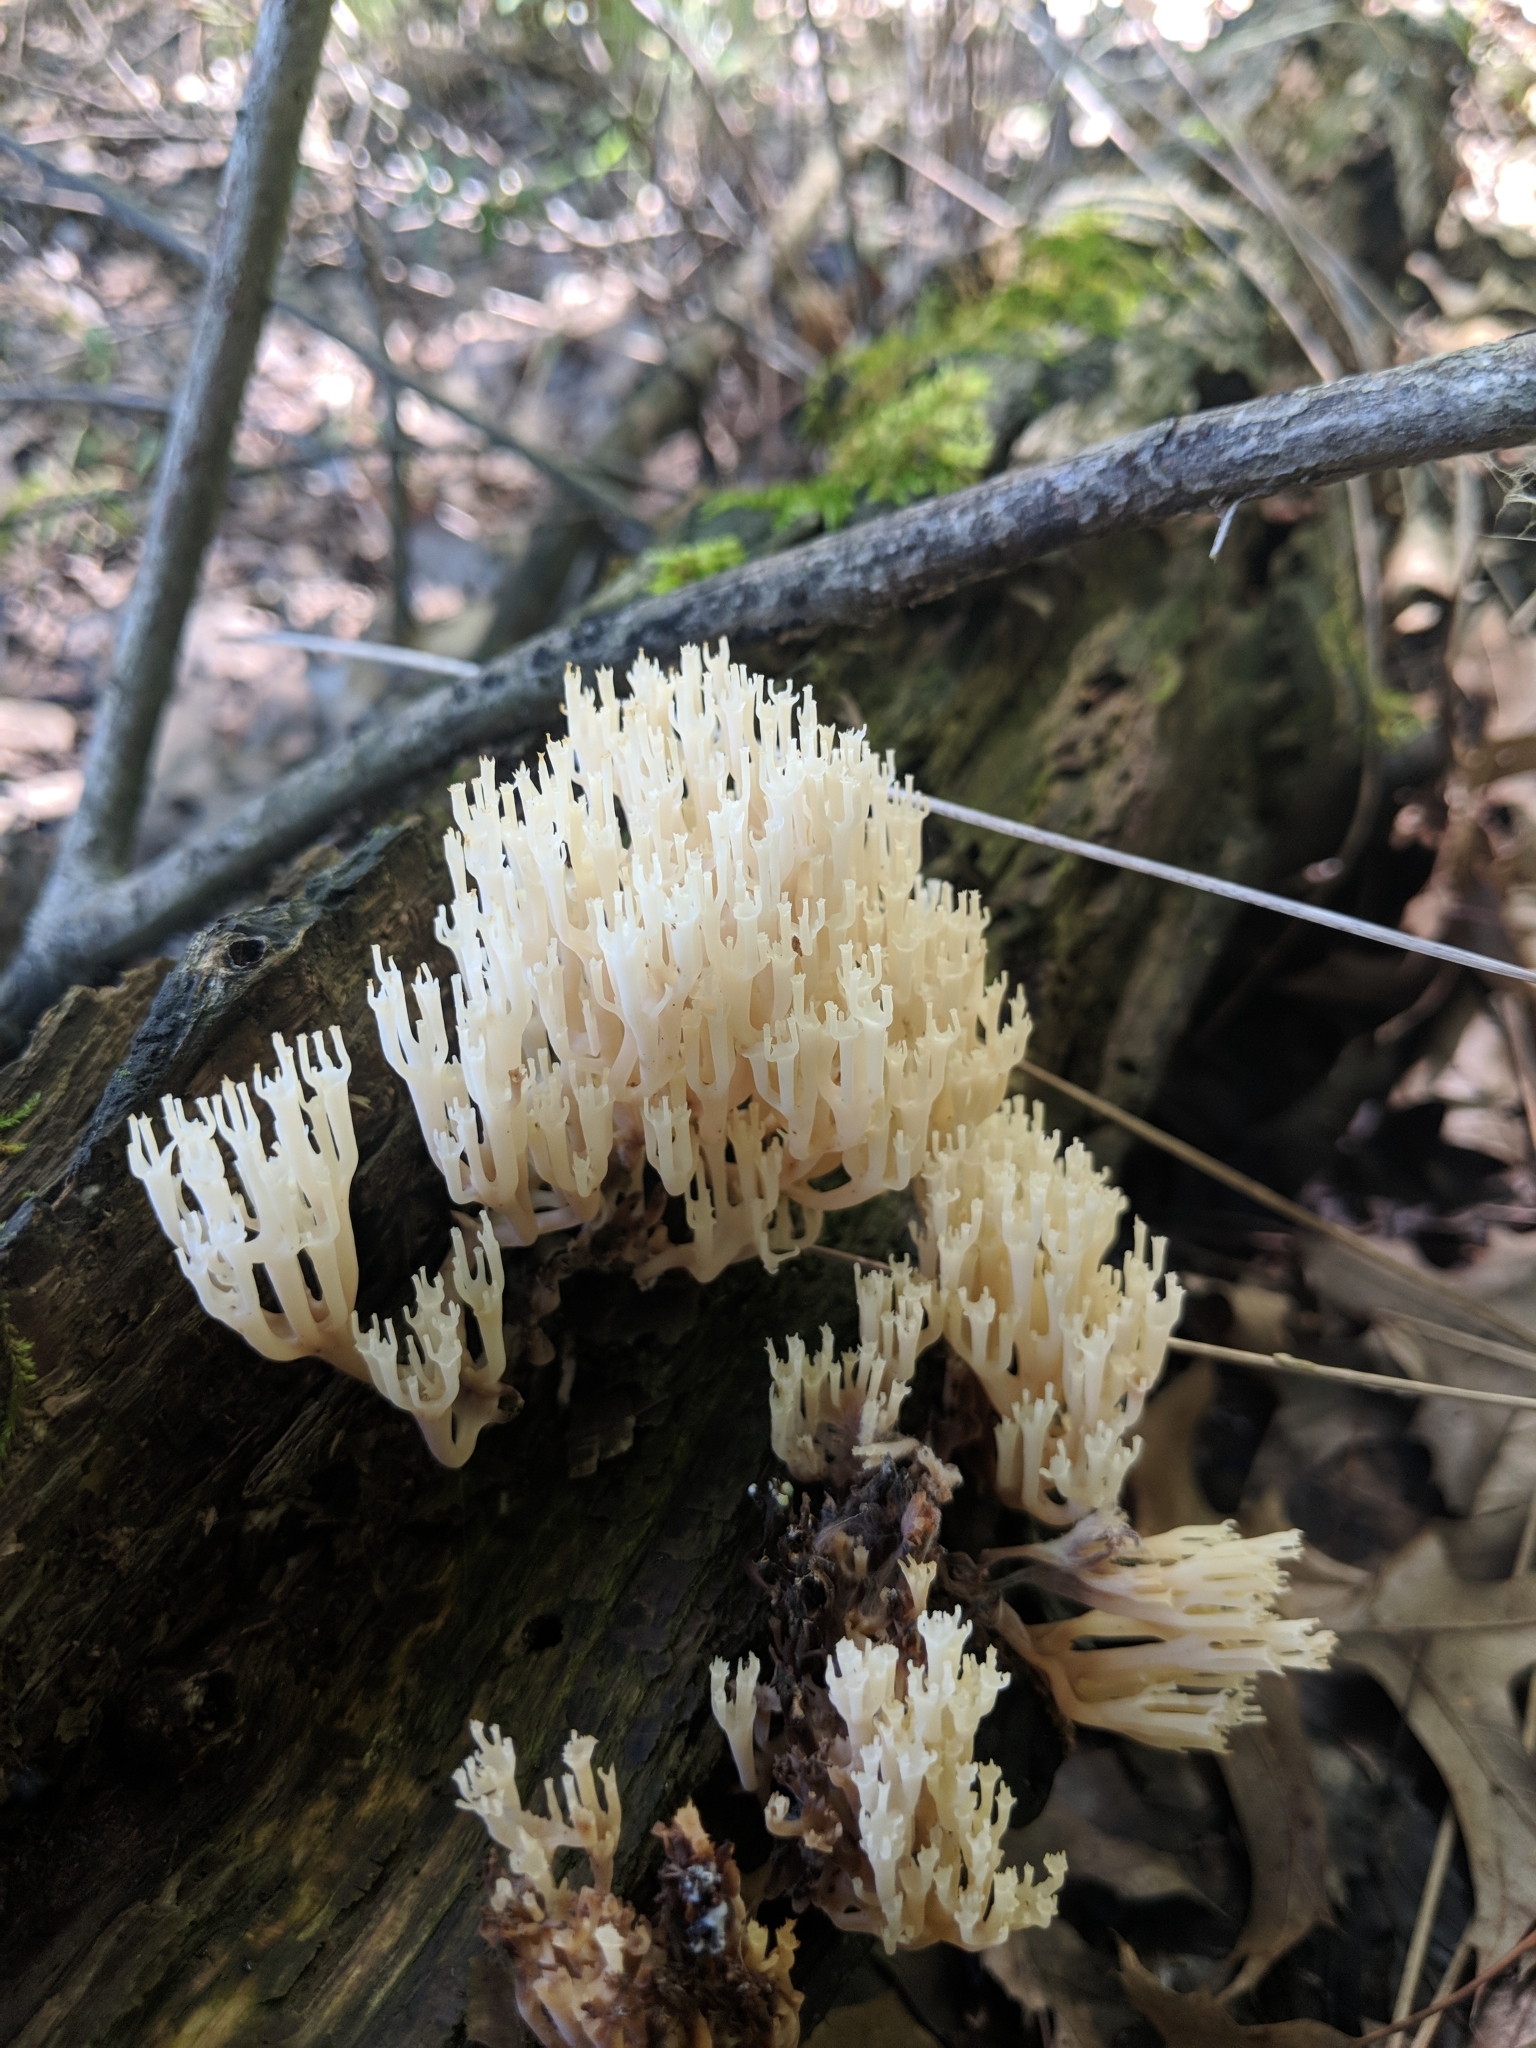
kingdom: Fungi
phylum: Basidiomycota
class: Agaricomycetes
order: Russulales
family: Auriscalpiaceae
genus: Artomyces
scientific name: Artomyces pyxidatus
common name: Crown-tipped coral fungus
